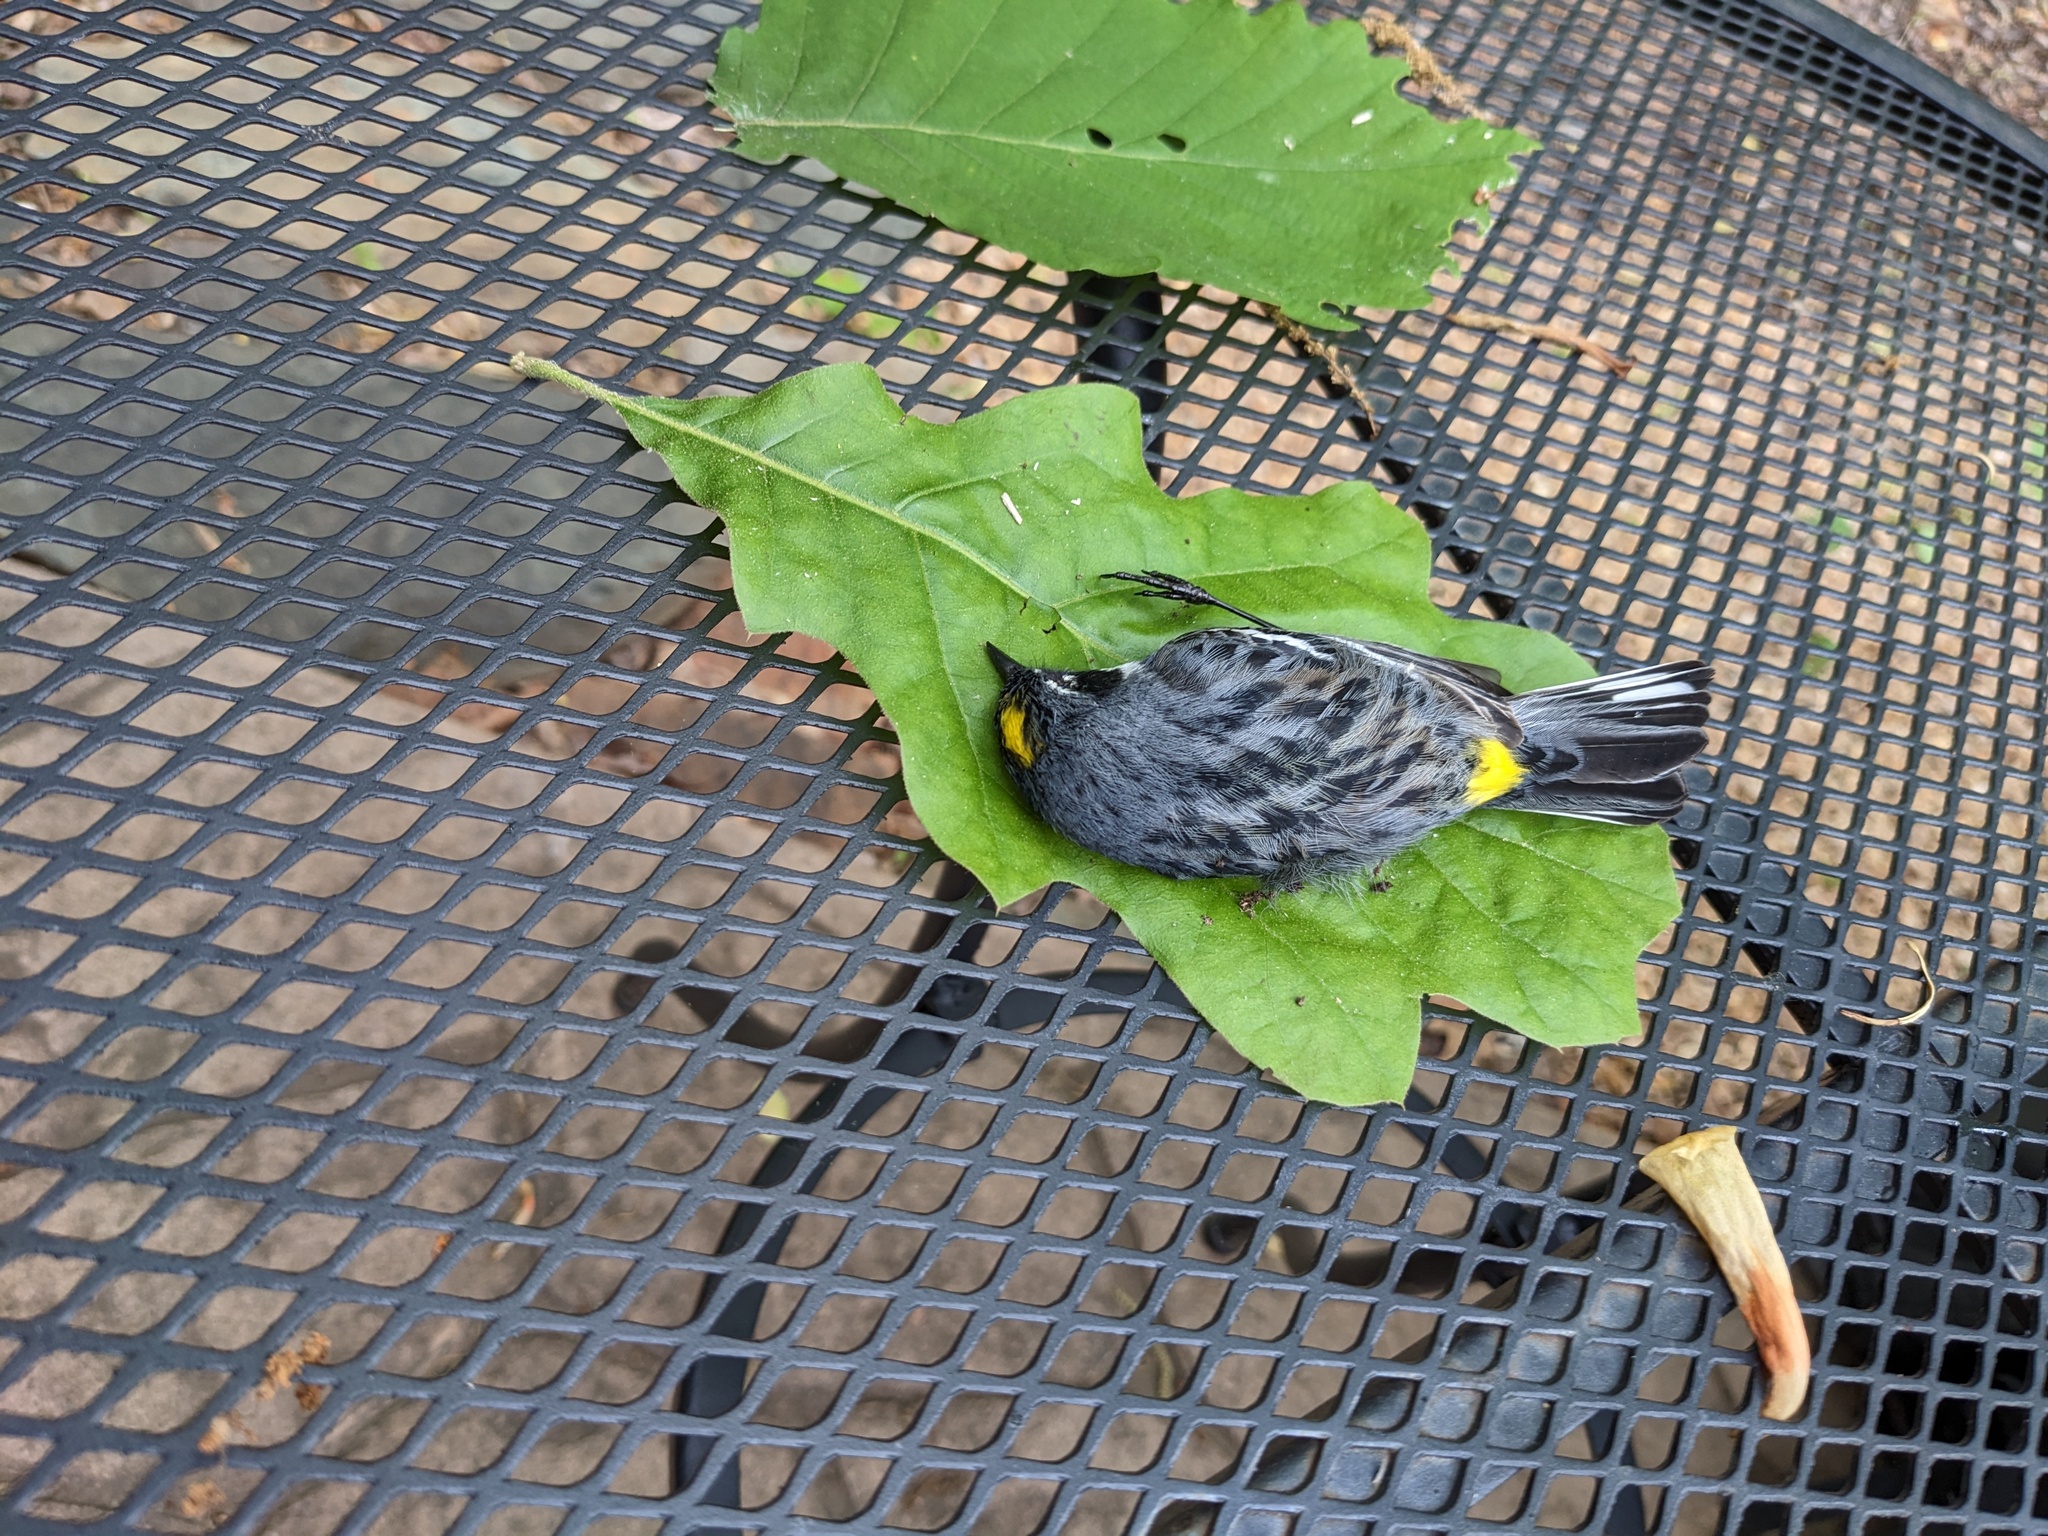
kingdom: Animalia
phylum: Chordata
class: Aves
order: Passeriformes
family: Parulidae
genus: Setophaga
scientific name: Setophaga coronata
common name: Myrtle warbler
